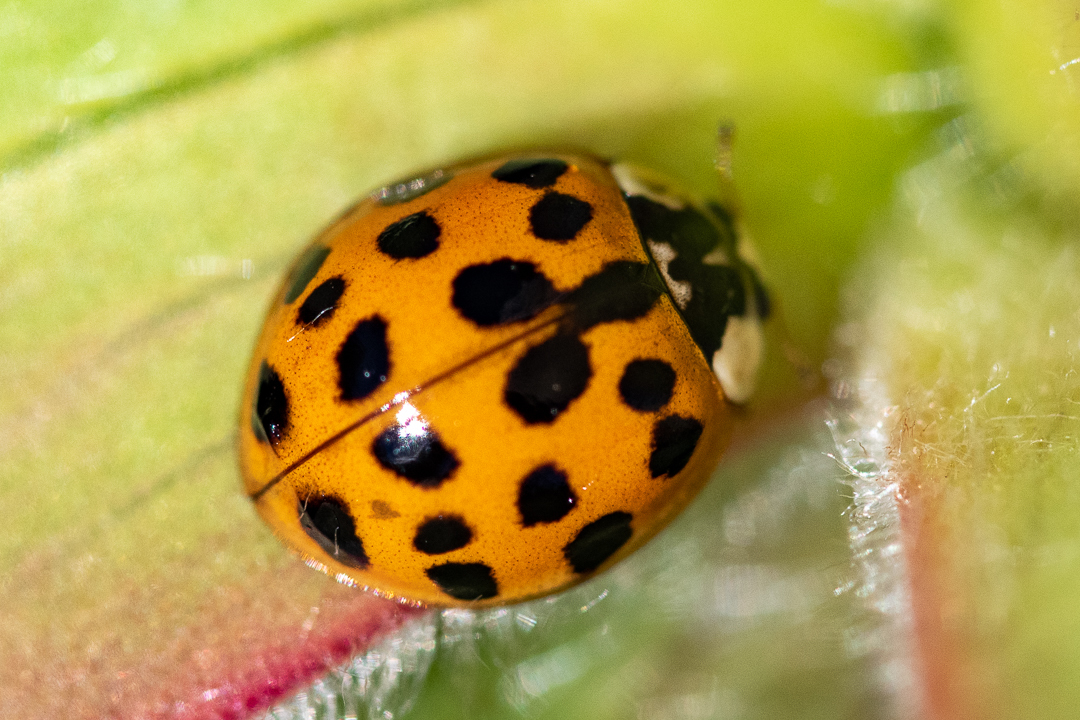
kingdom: Animalia
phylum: Arthropoda
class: Insecta
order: Coleoptera
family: Coccinellidae
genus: Harmonia
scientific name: Harmonia axyridis
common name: Harlequin ladybird
